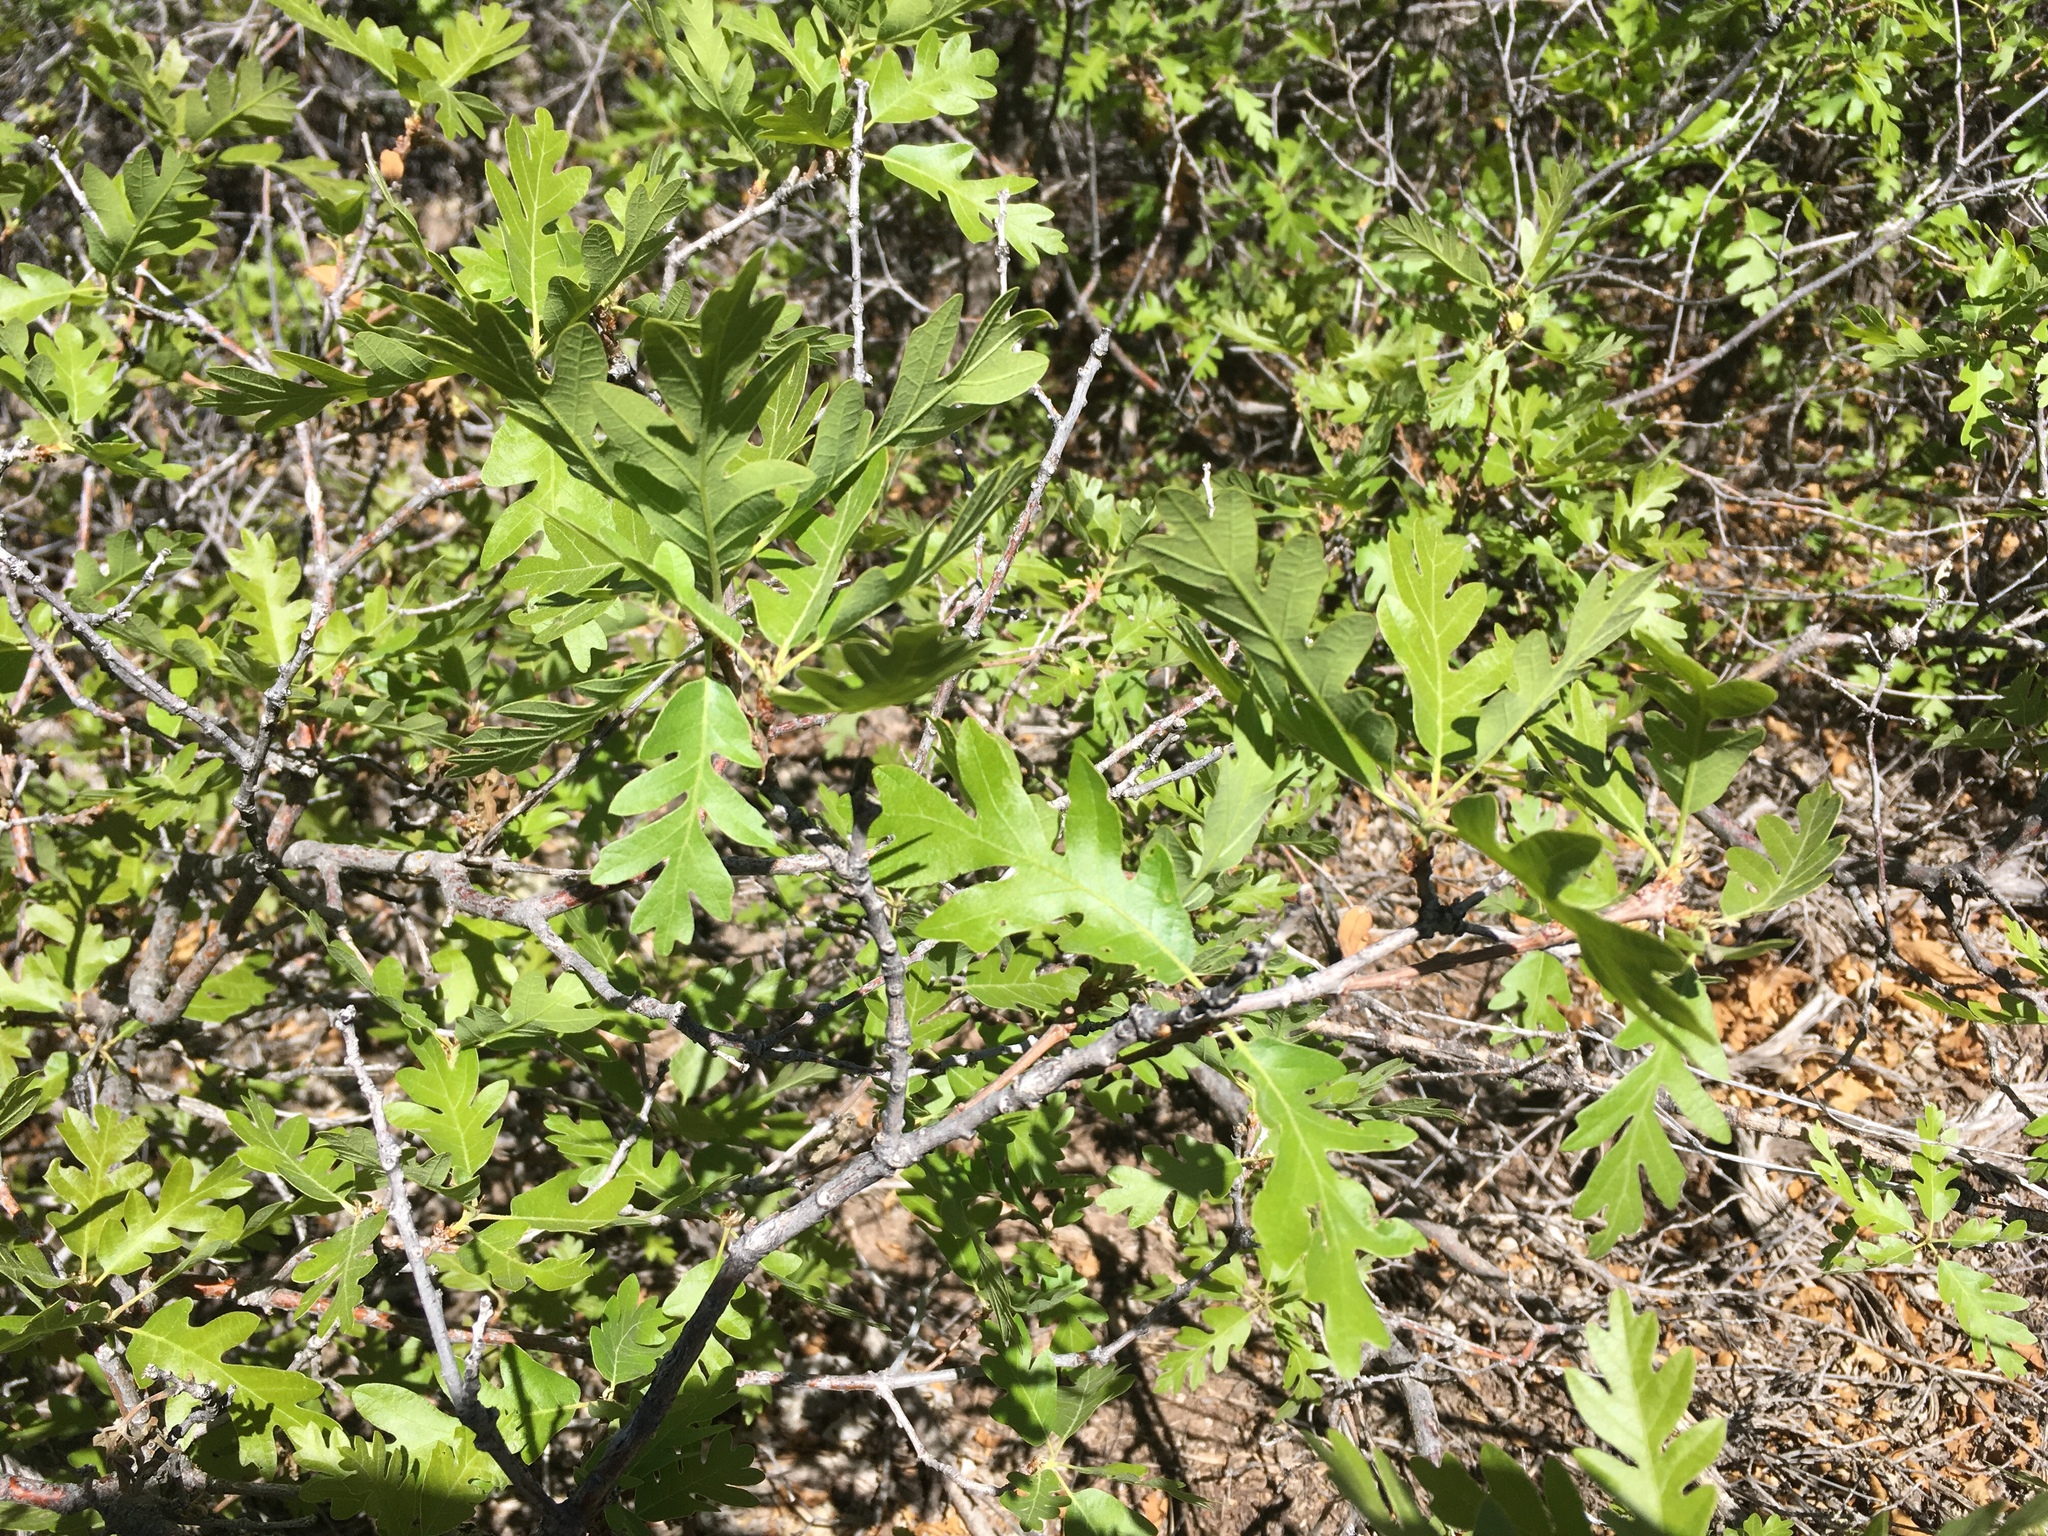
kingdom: Plantae
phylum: Tracheophyta
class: Magnoliopsida
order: Fagales
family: Fagaceae
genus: Quercus
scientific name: Quercus gambelii
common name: Gambel oak
